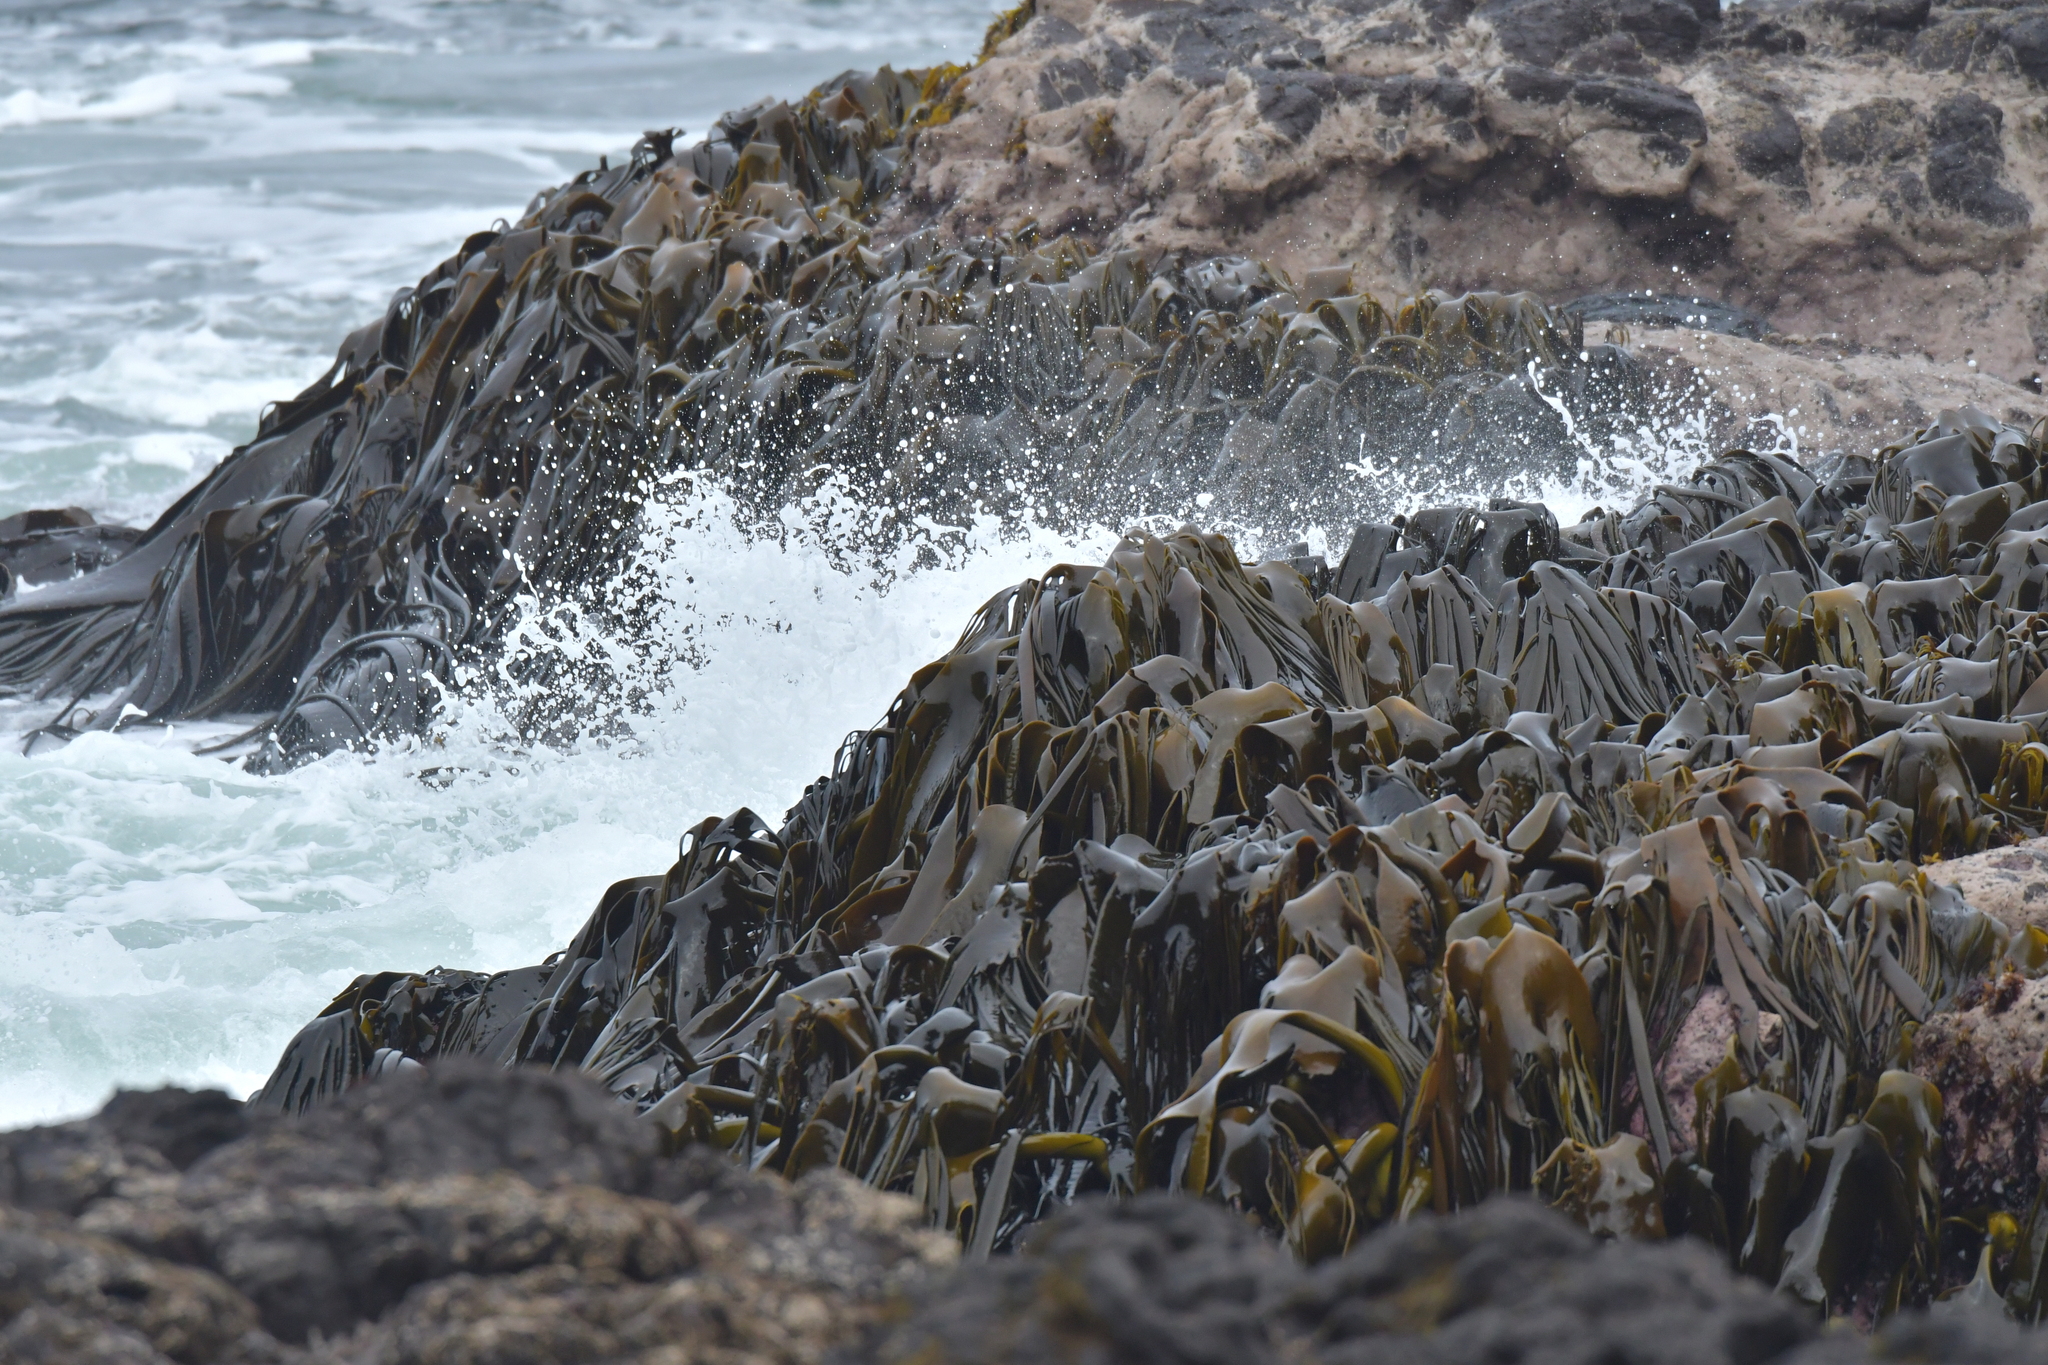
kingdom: Chromista
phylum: Ochrophyta
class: Phaeophyceae
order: Fucales
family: Durvillaeaceae
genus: Durvillaea
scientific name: Durvillaea antarctica
